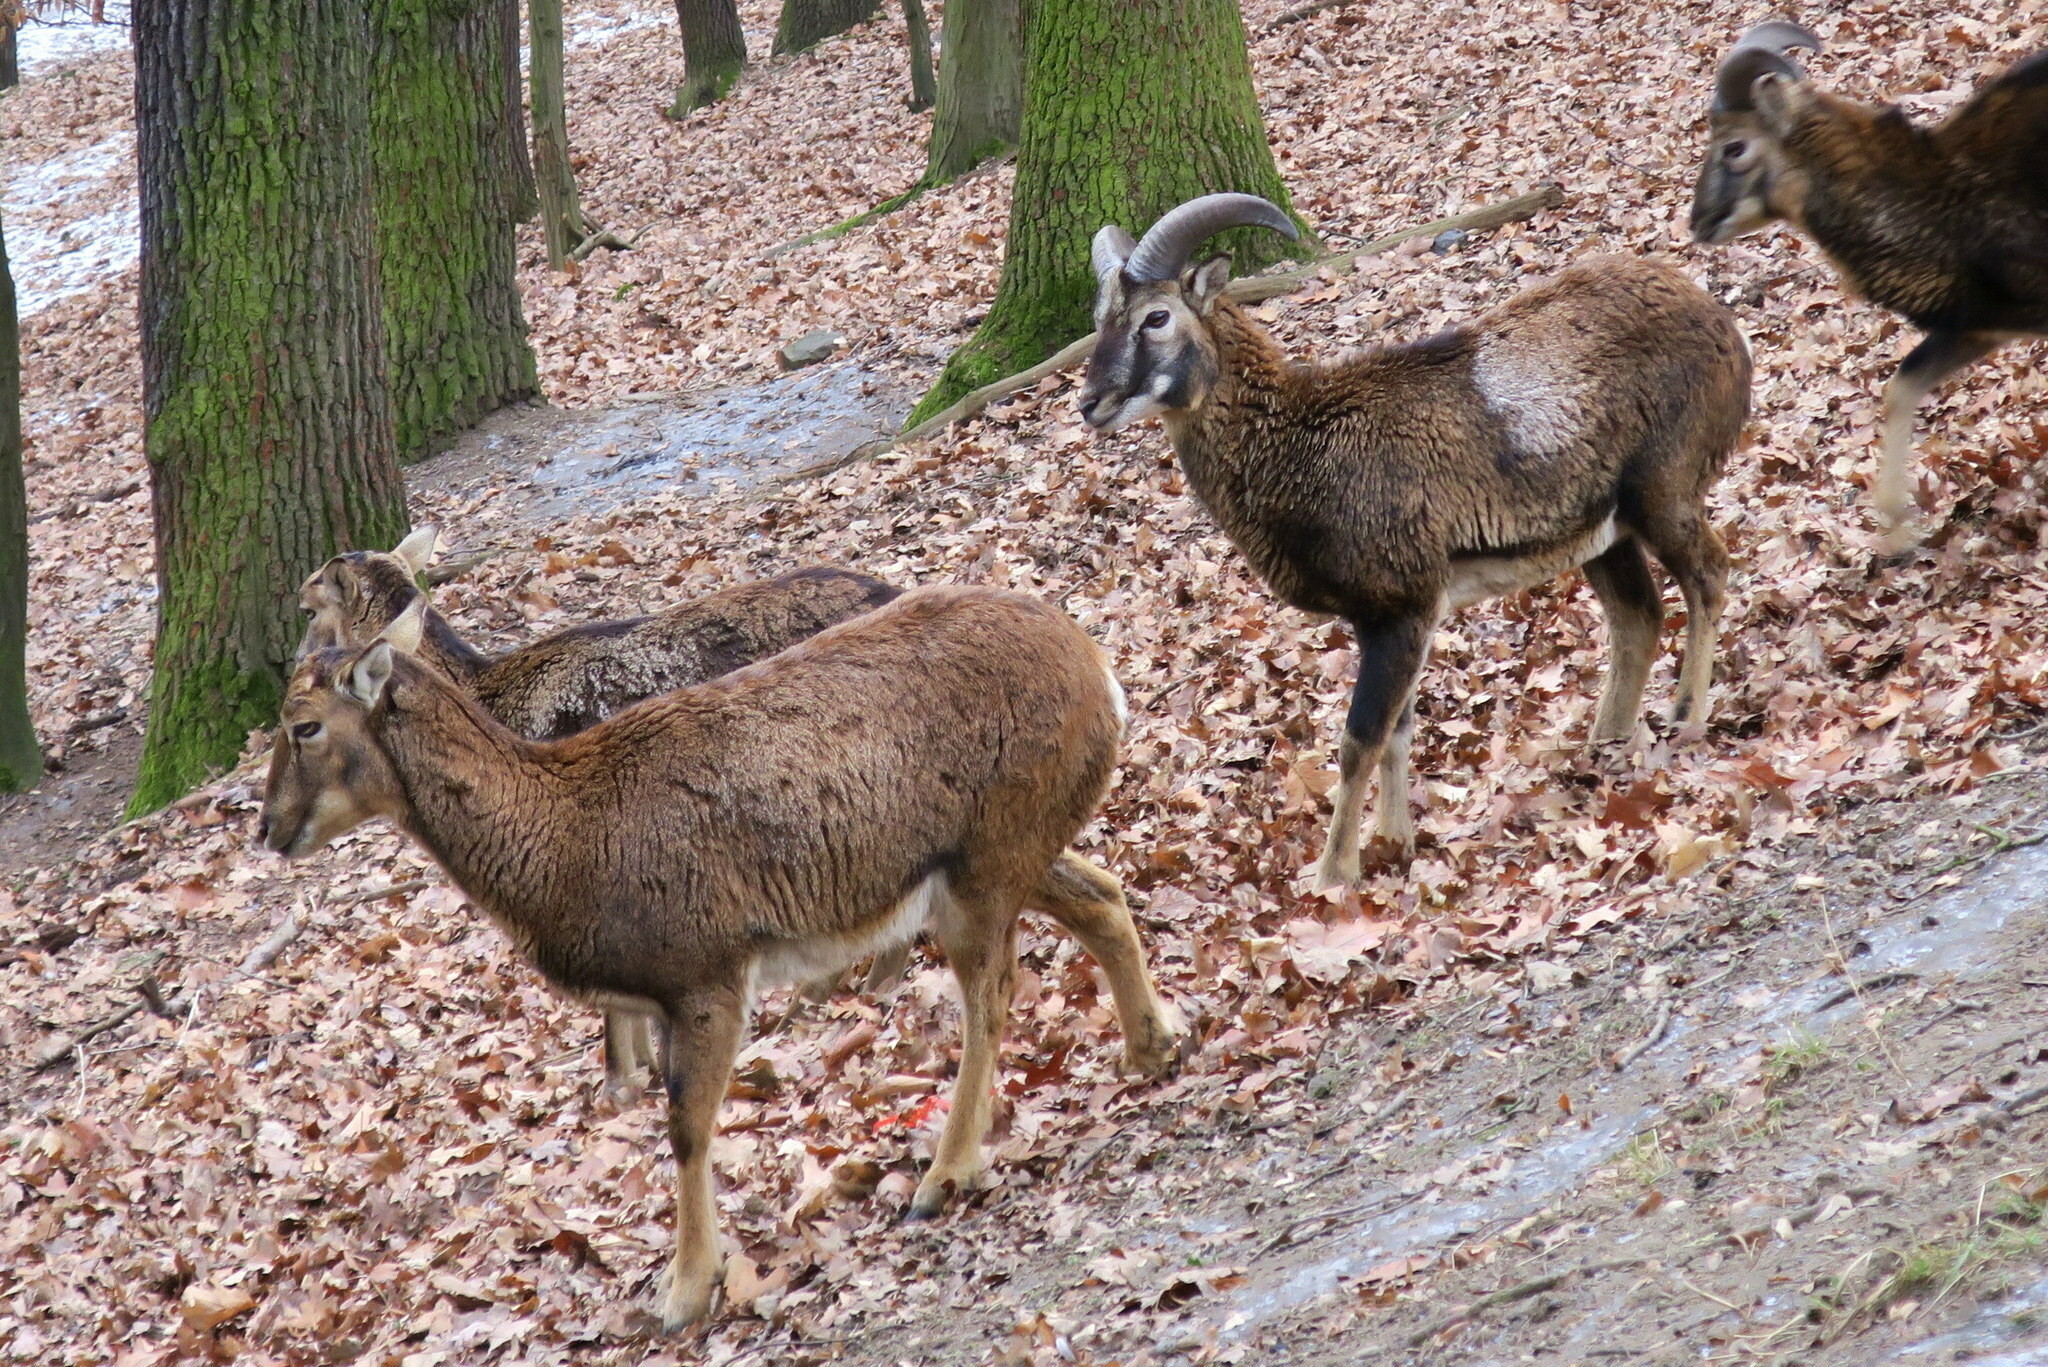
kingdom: Animalia
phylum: Chordata
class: Mammalia
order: Artiodactyla
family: Bovidae
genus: Ovis
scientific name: Ovis aries
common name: Domestic sheep
